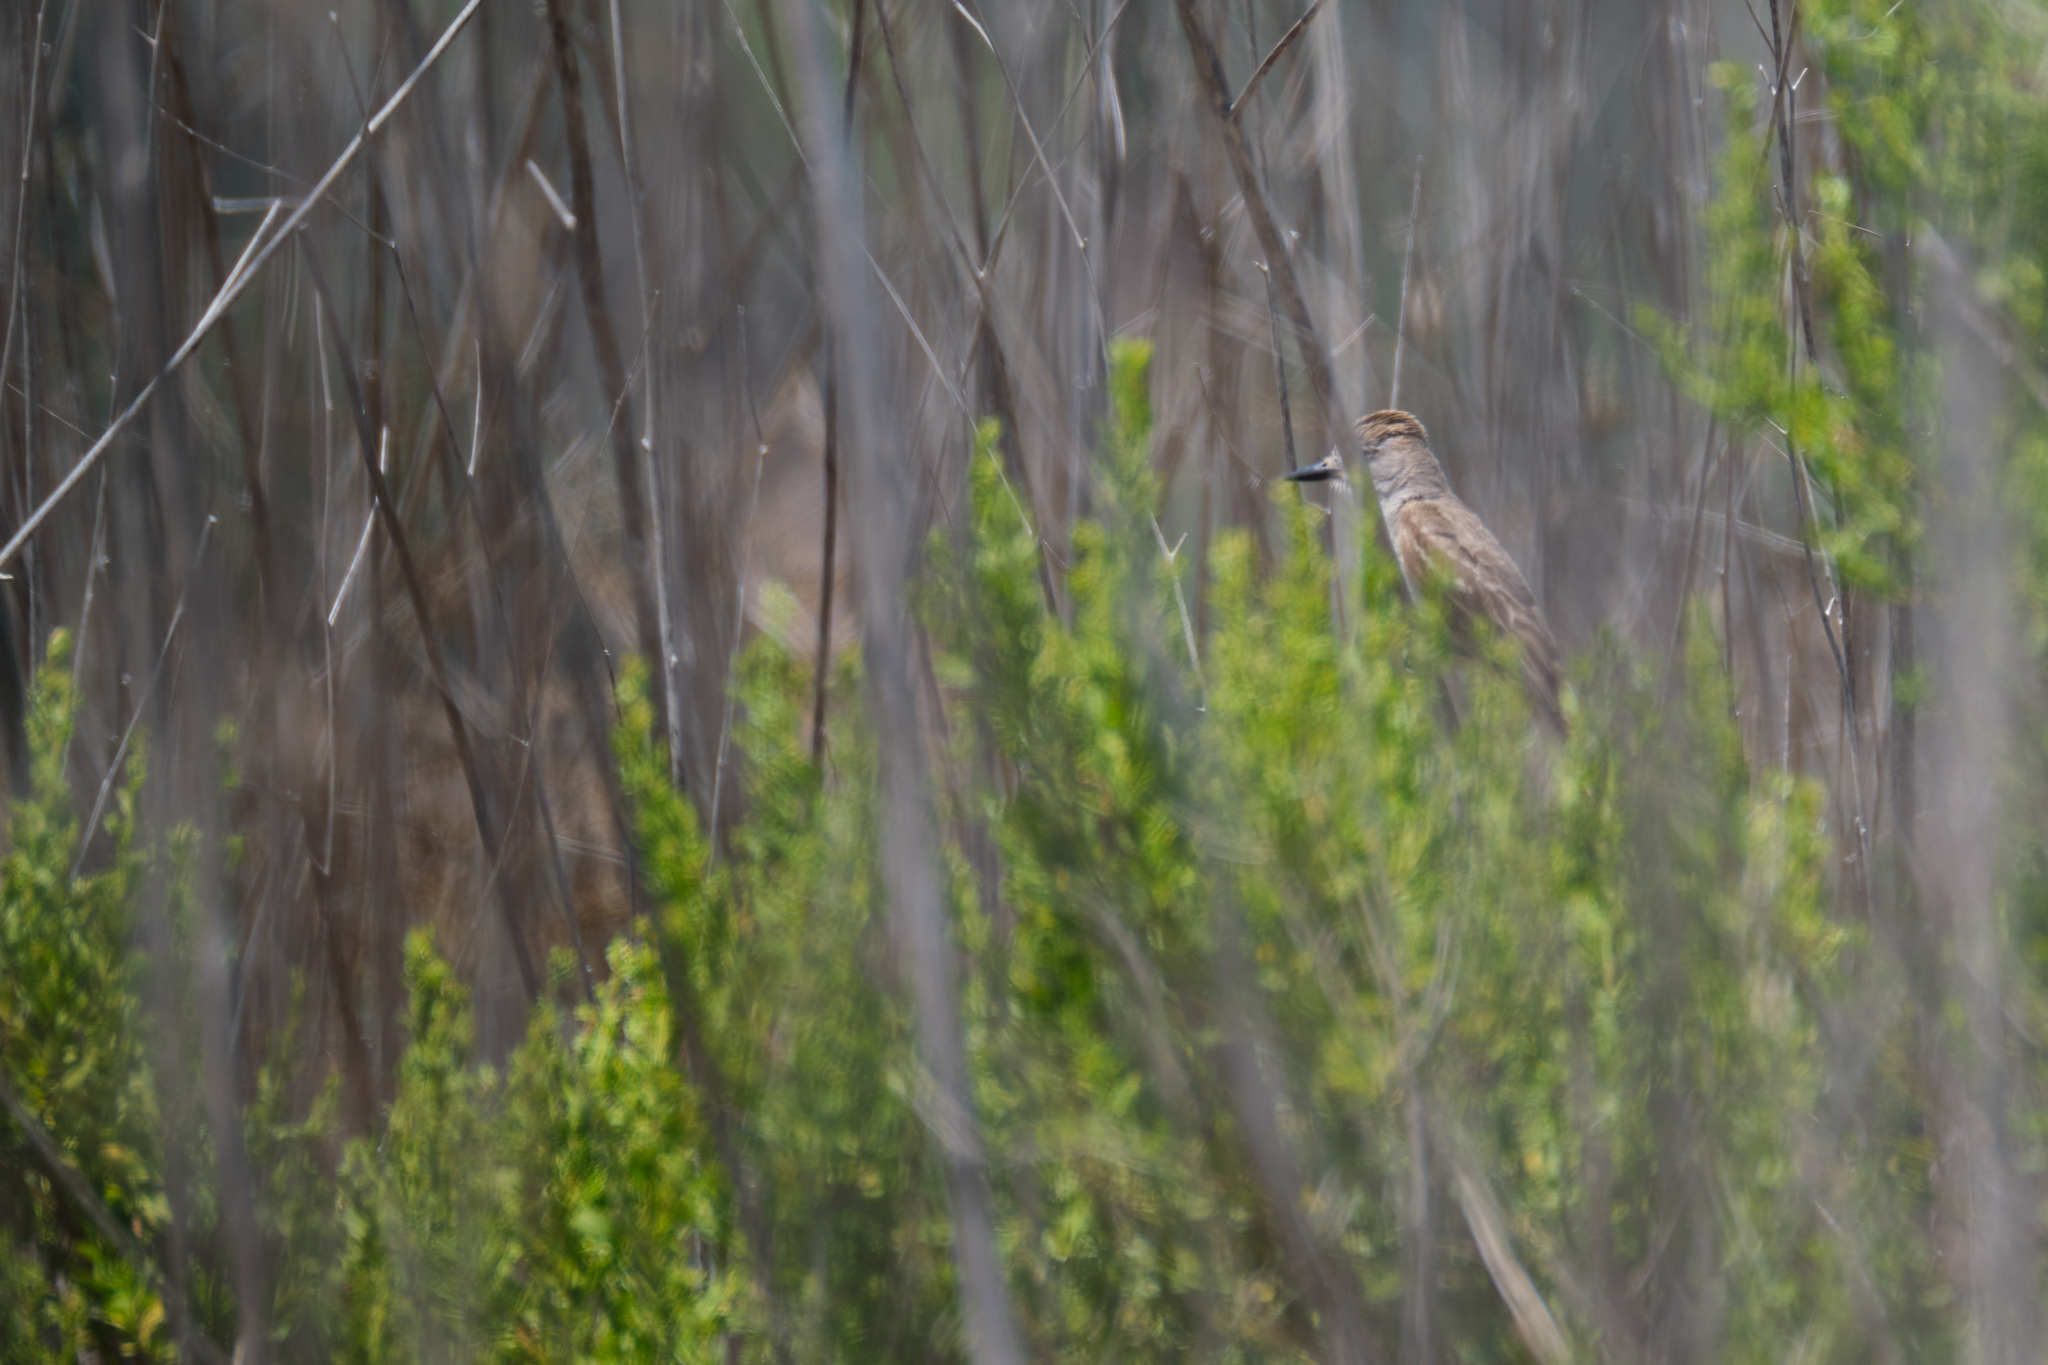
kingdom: Animalia
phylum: Chordata
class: Aves
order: Passeriformes
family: Tyrannidae
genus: Myiarchus
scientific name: Myiarchus cinerascens
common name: Ash-throated flycatcher
